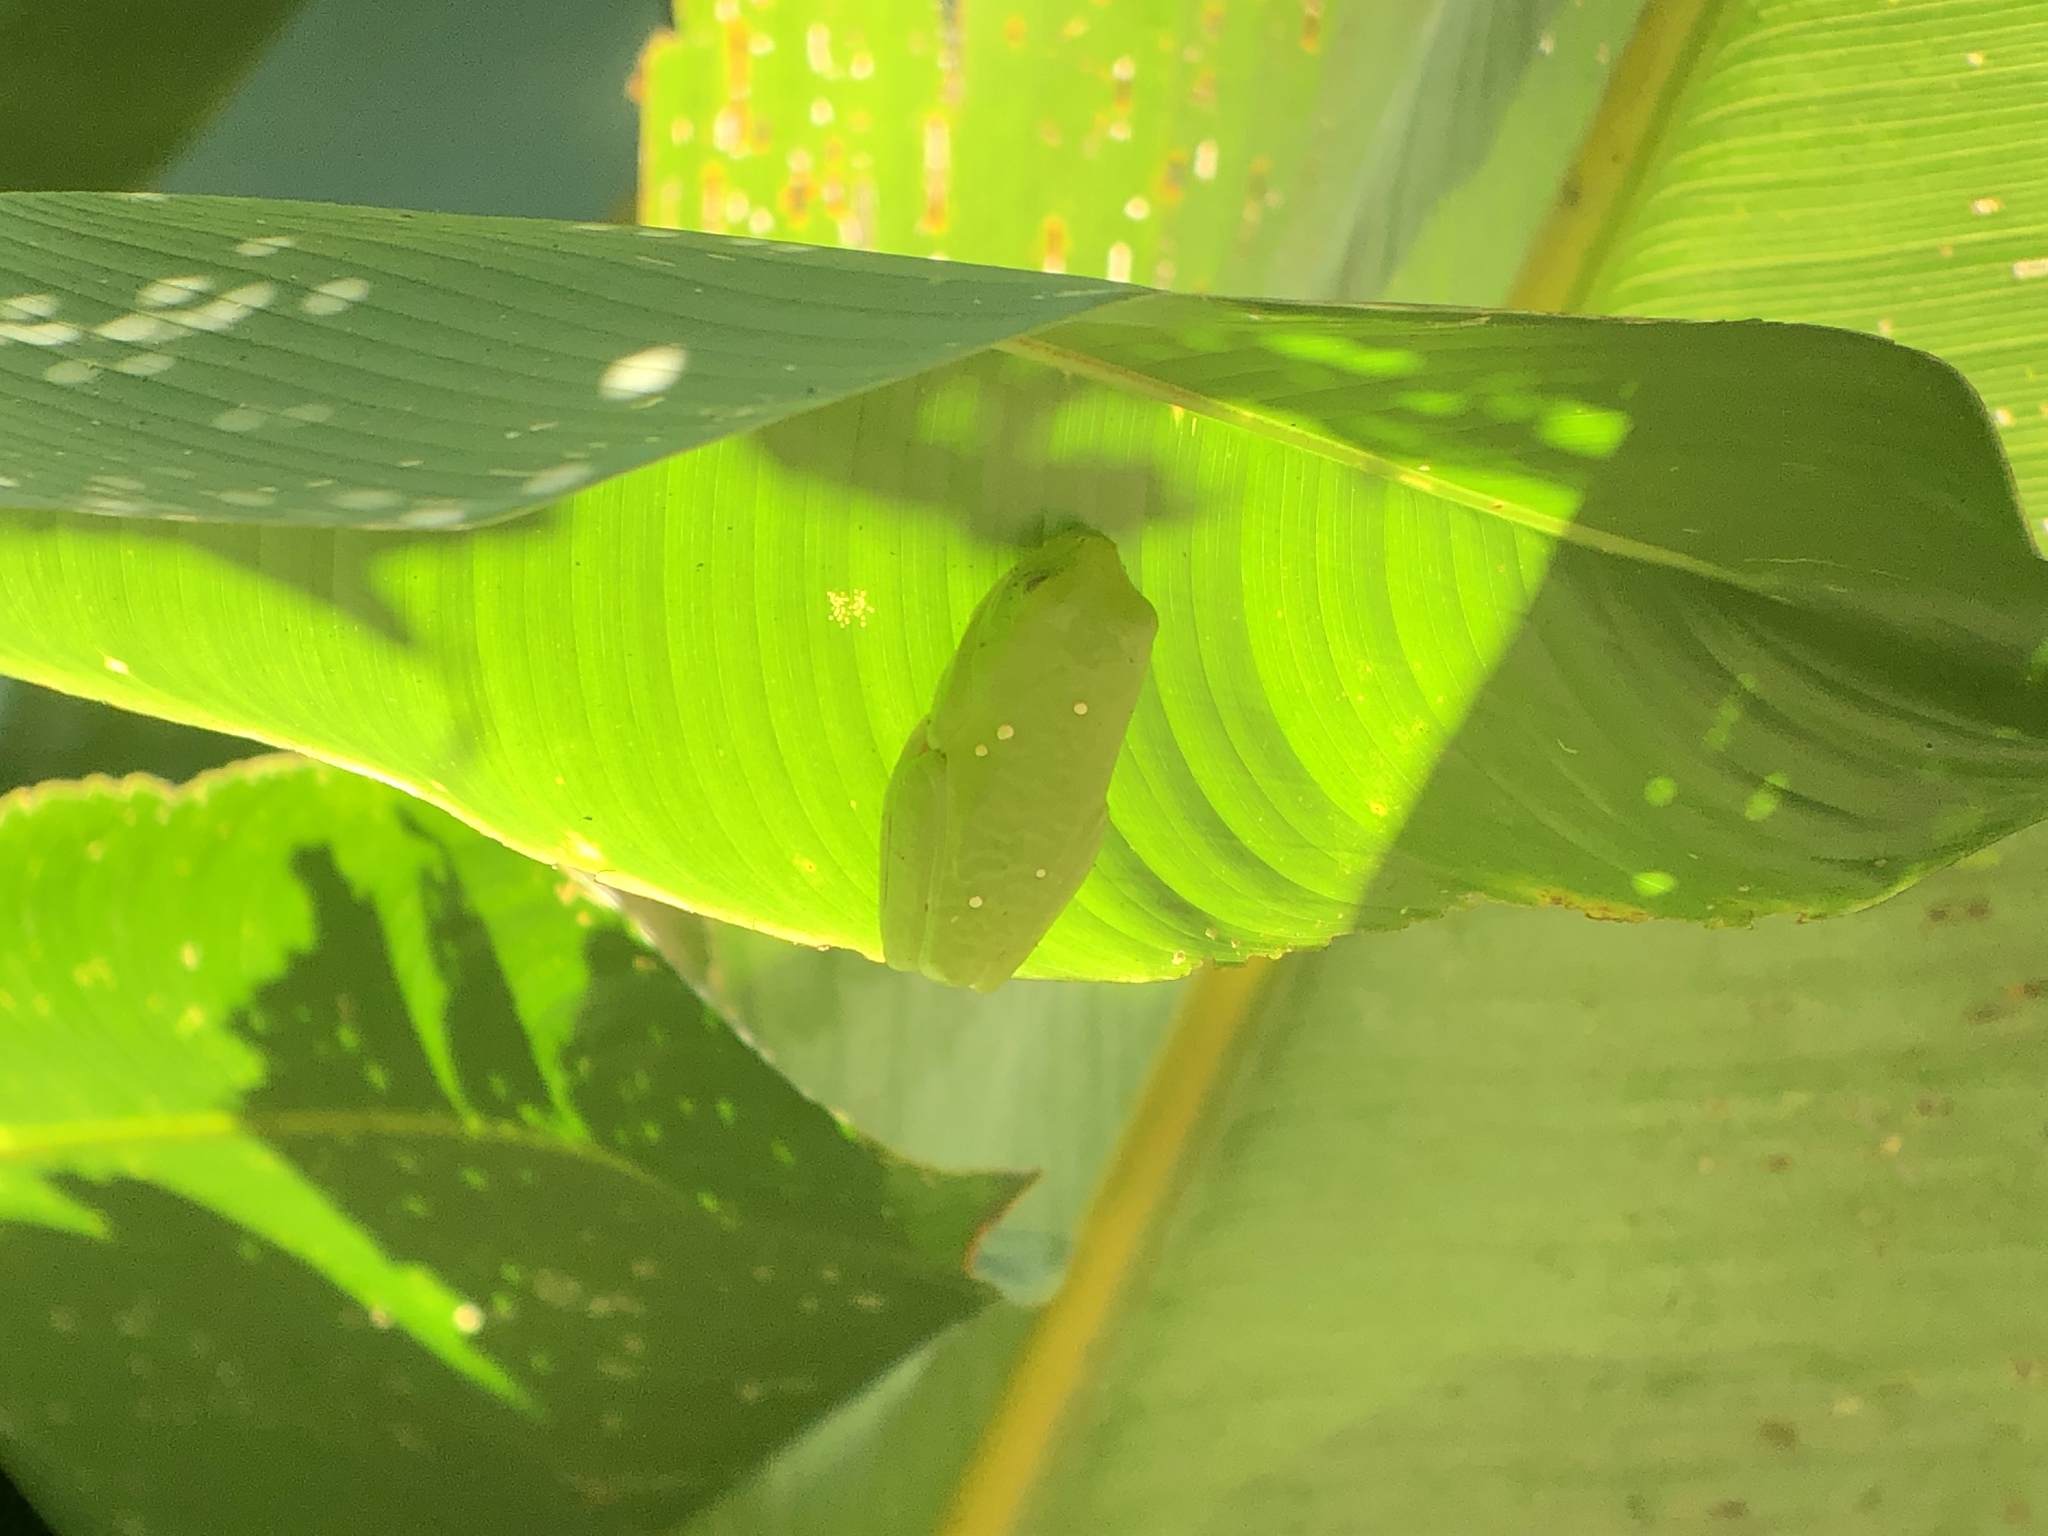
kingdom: Animalia
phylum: Chordata
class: Amphibia
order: Anura
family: Phyllomedusidae
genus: Agalychnis
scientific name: Agalychnis callidryas
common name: Red-eyed treefrog
